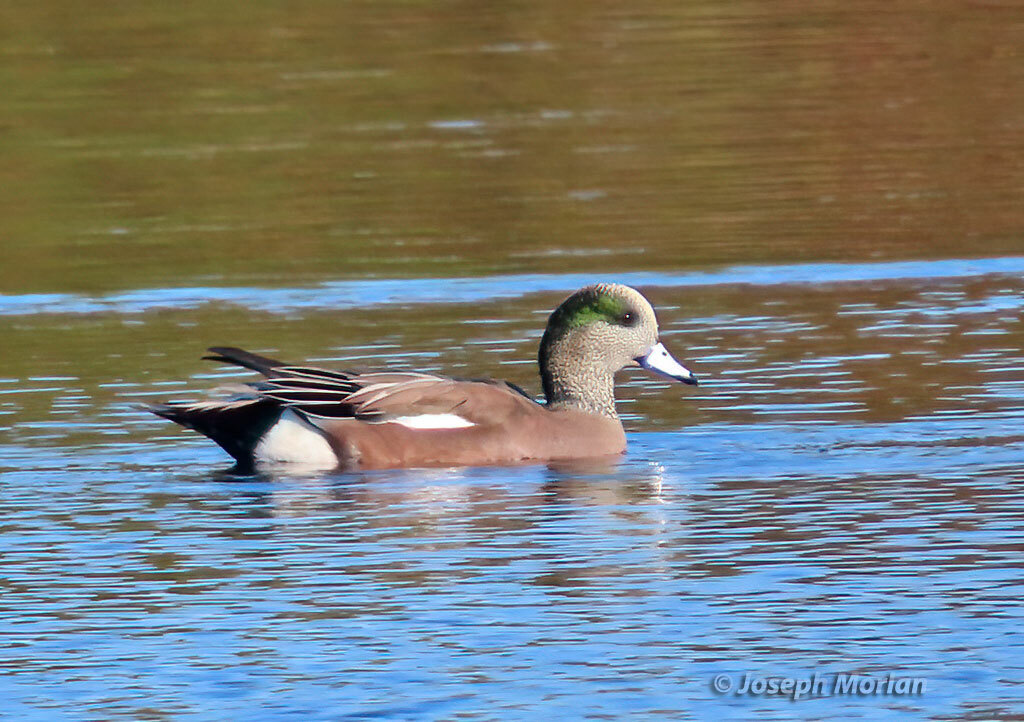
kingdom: Animalia
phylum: Chordata
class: Aves
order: Anseriformes
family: Anatidae
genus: Mareca
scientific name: Mareca americana
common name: American wigeon
